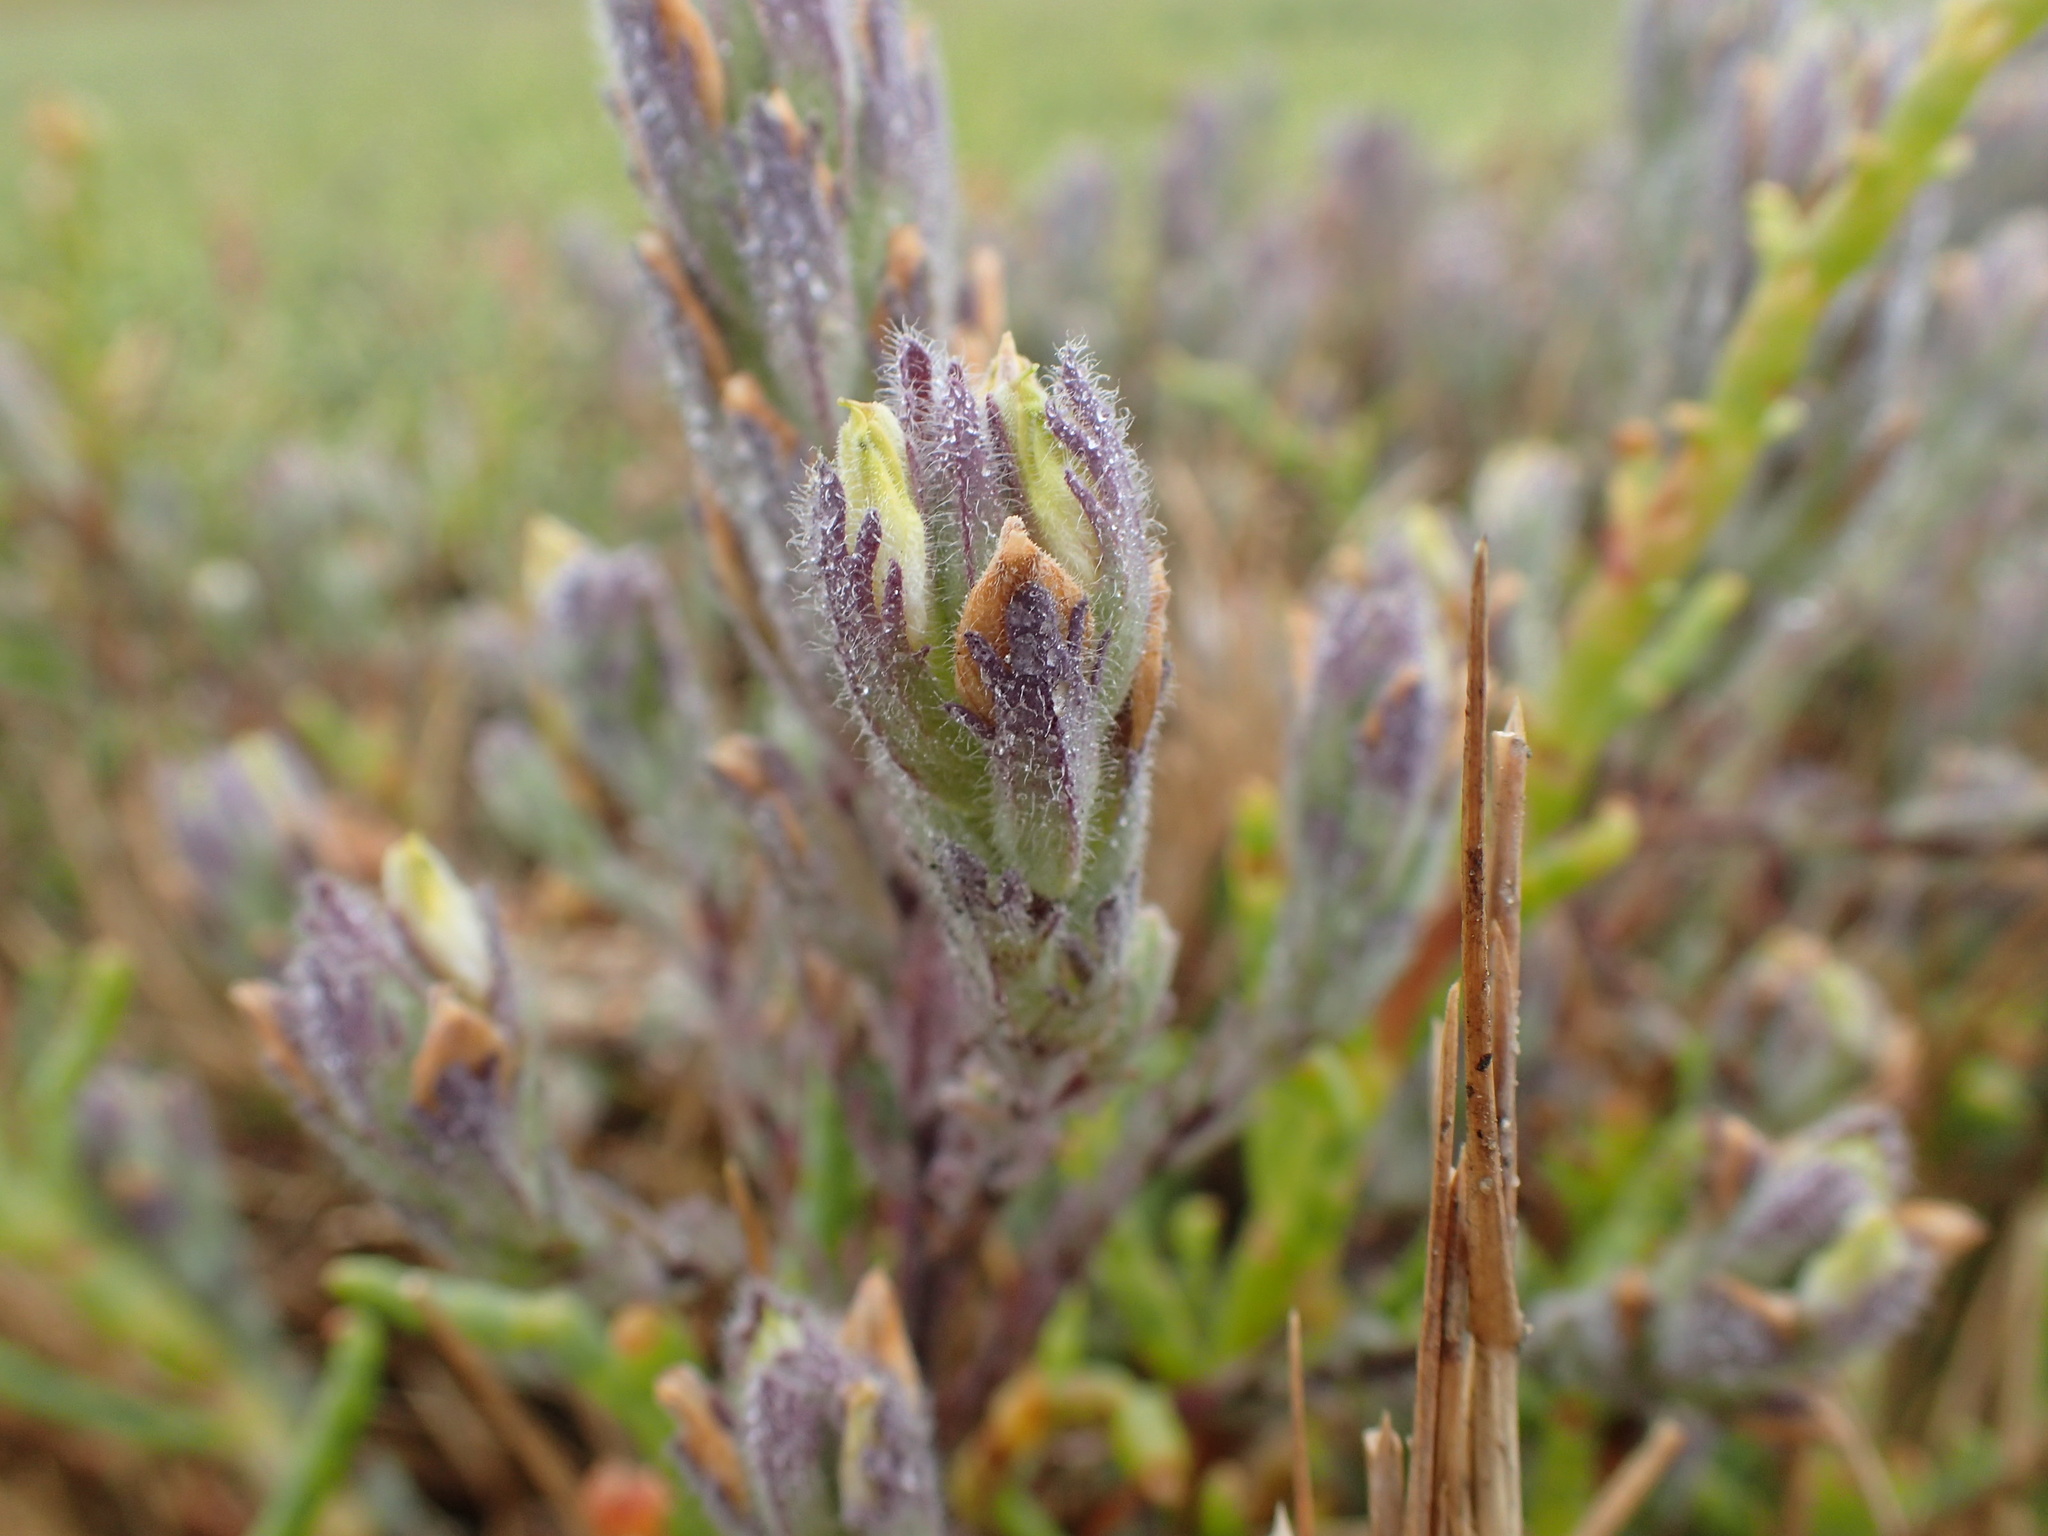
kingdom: Plantae
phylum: Tracheophyta
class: Magnoliopsida
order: Lamiales
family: Orobanchaceae
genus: Chloropyron
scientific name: Chloropyron molle
